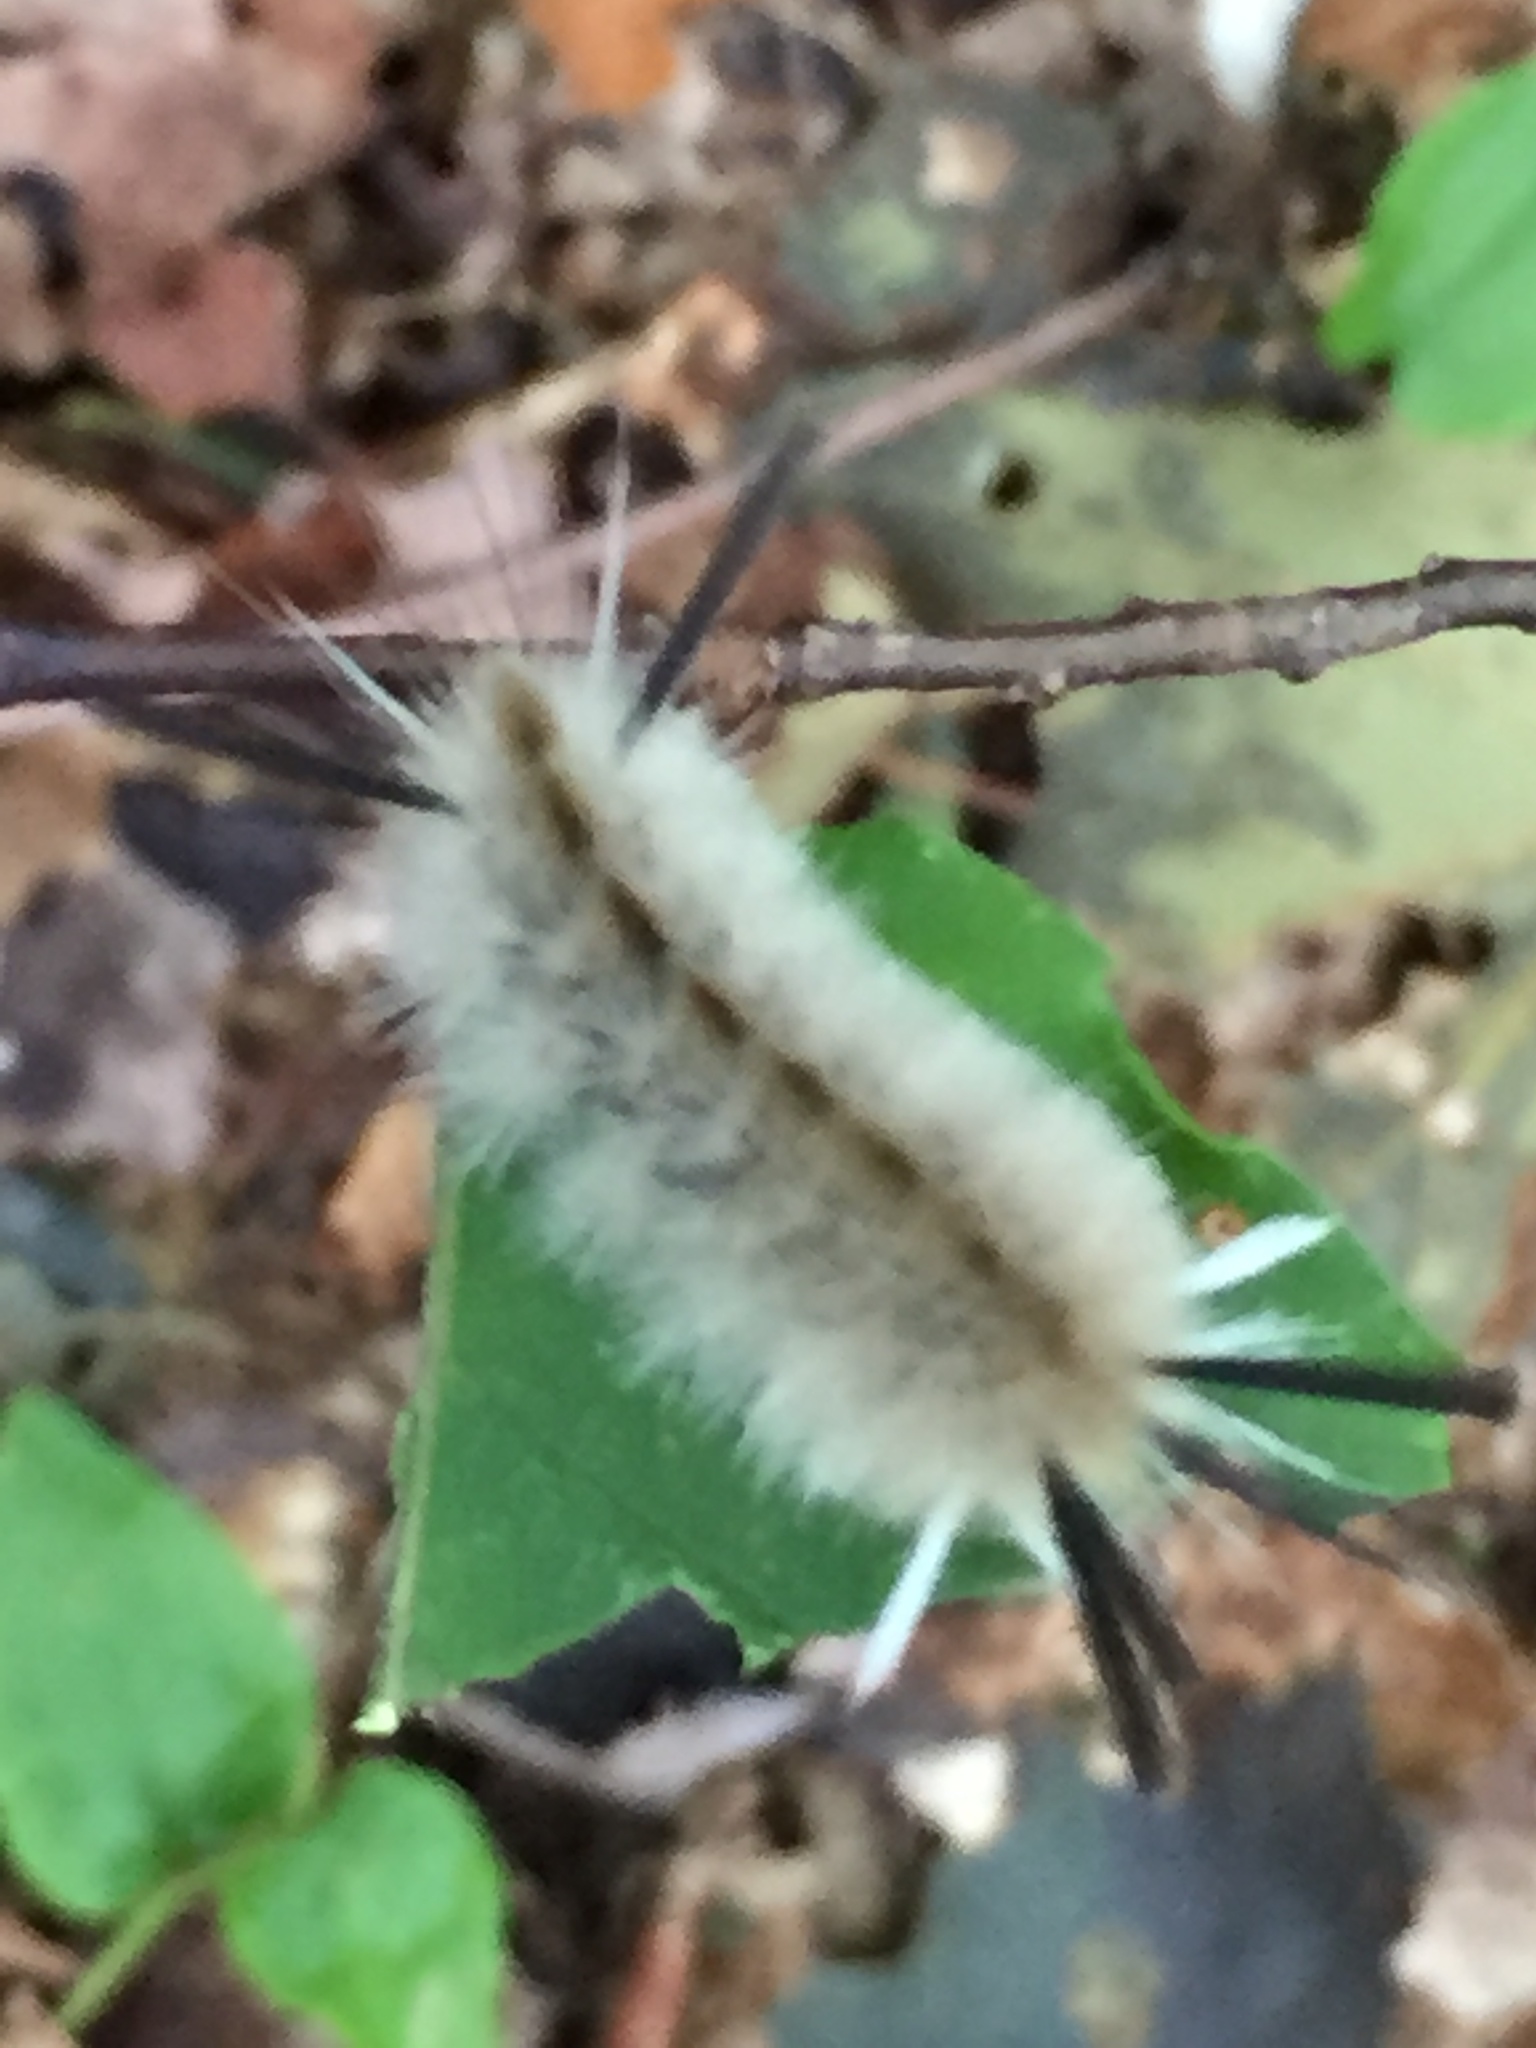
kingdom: Animalia
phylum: Arthropoda
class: Insecta
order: Lepidoptera
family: Erebidae
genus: Halysidota
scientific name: Halysidota tessellaris
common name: Banded tussock moth
